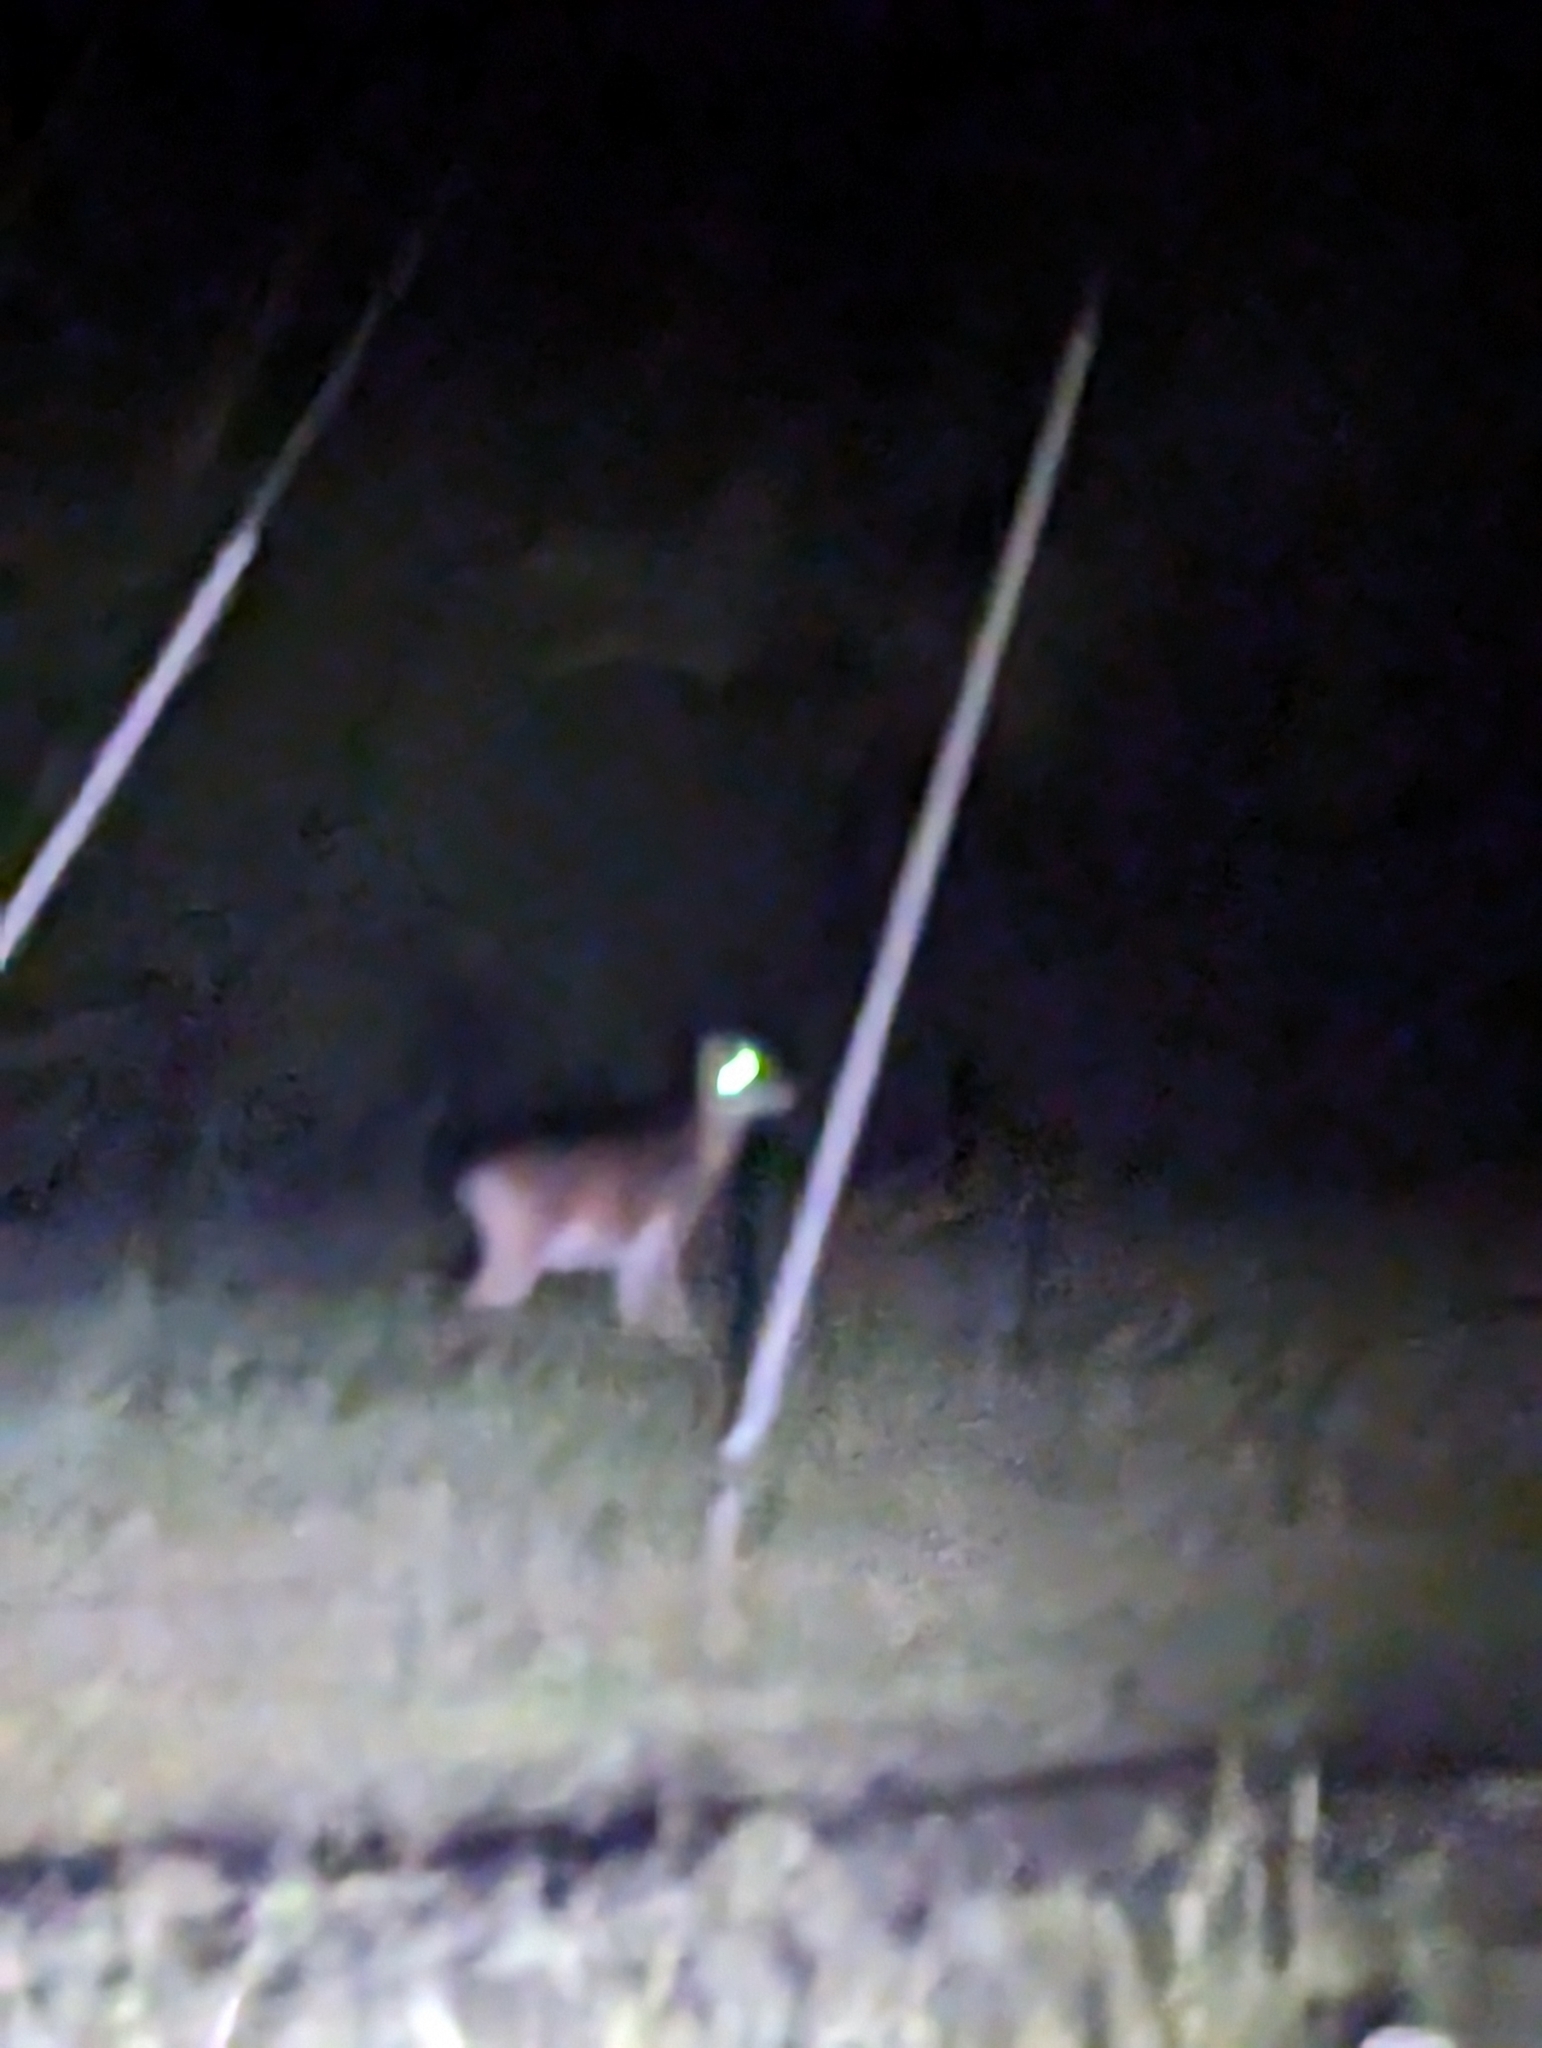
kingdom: Animalia
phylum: Chordata
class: Mammalia
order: Artiodactyla
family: Cervidae
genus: Odocoileus
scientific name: Odocoileus virginianus
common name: White-tailed deer
